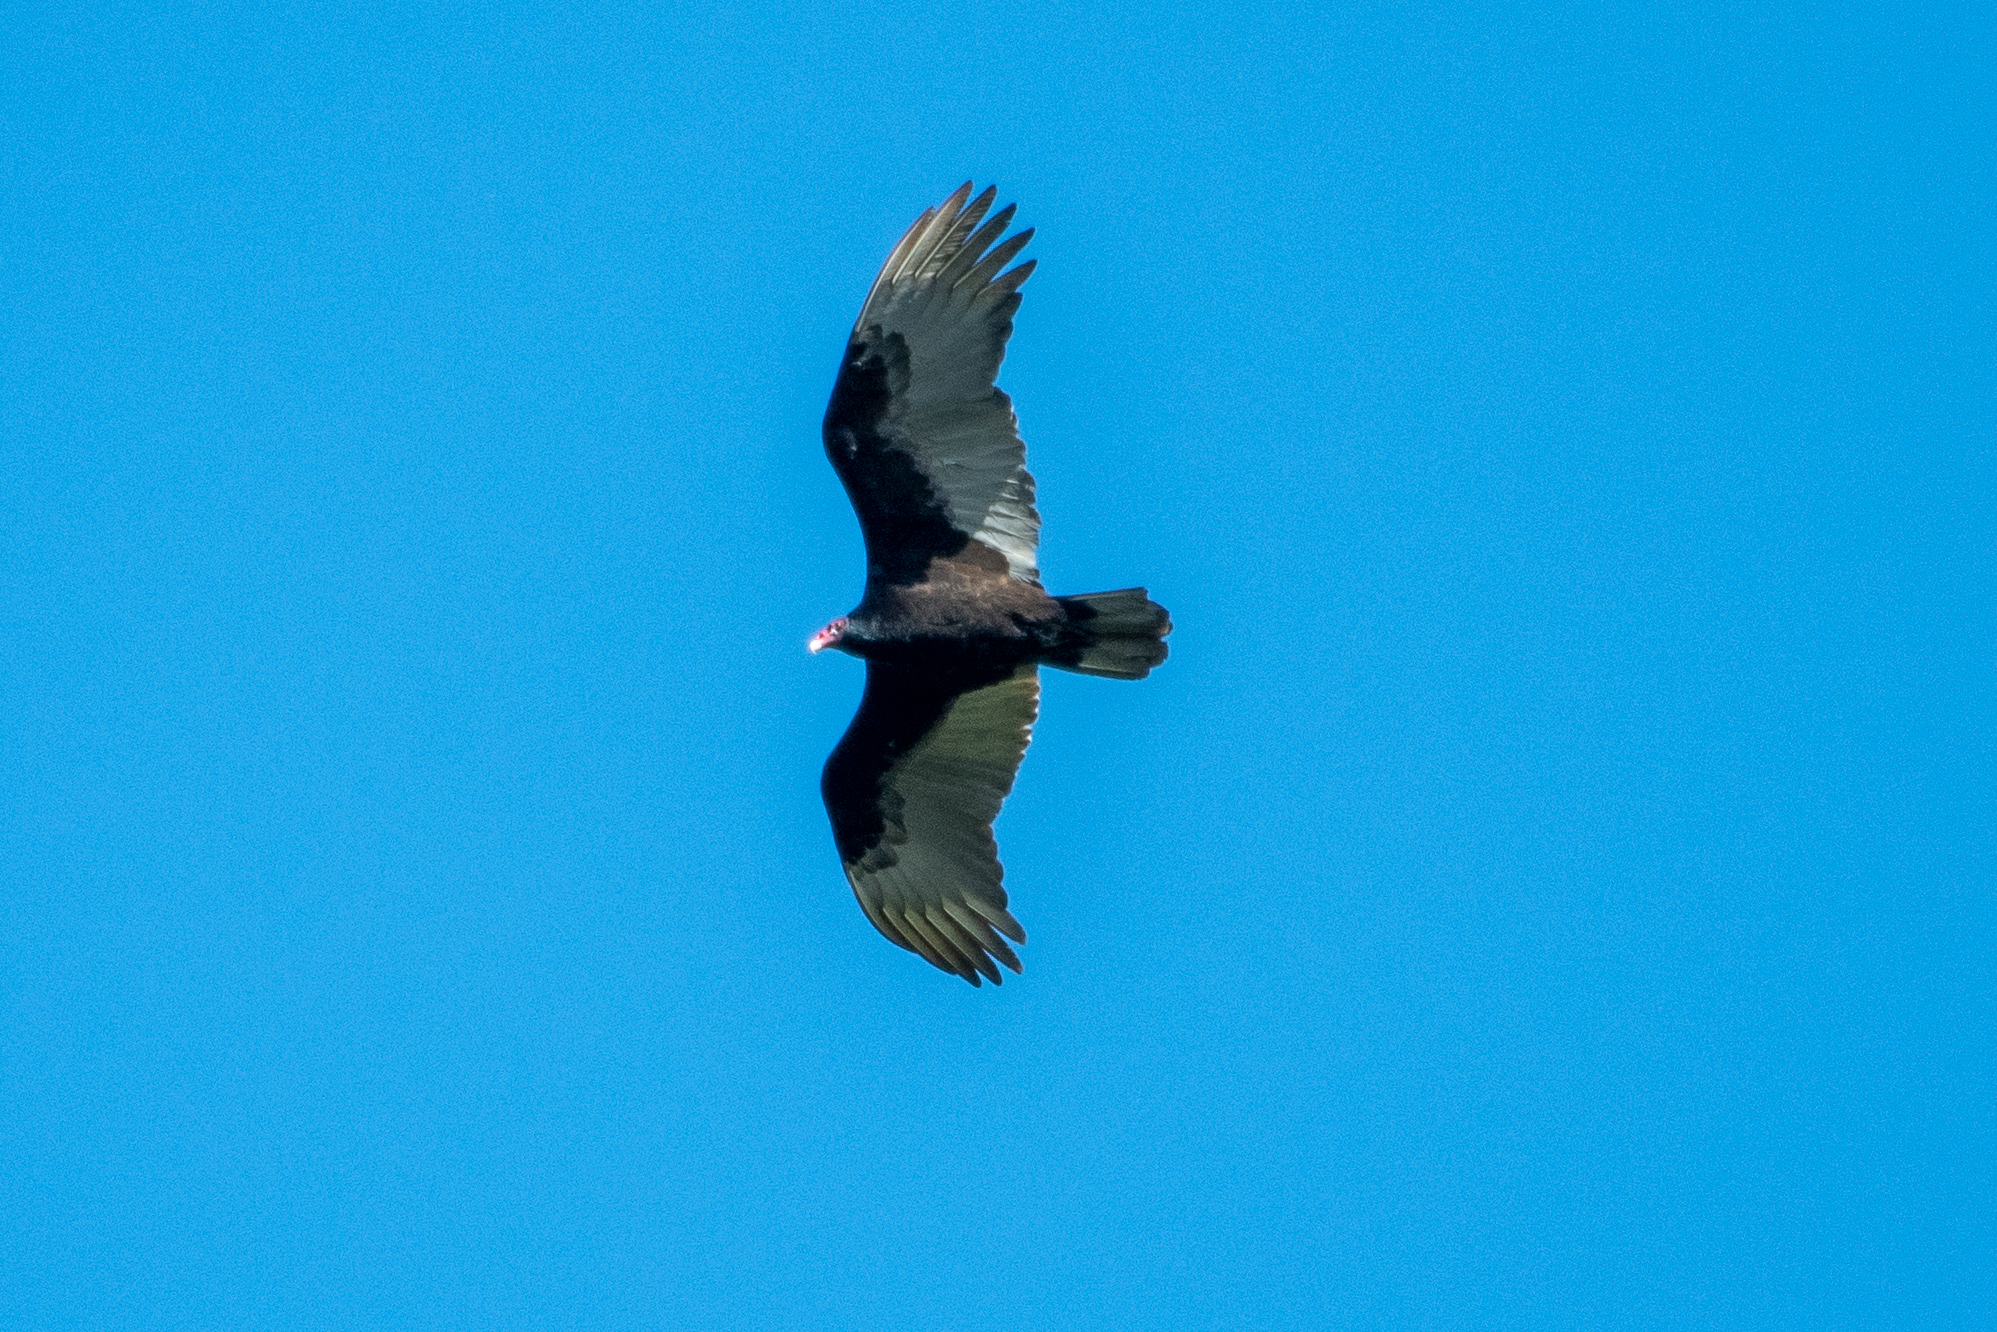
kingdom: Animalia
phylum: Chordata
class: Aves
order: Accipitriformes
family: Cathartidae
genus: Cathartes
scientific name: Cathartes aura
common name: Turkey vulture
